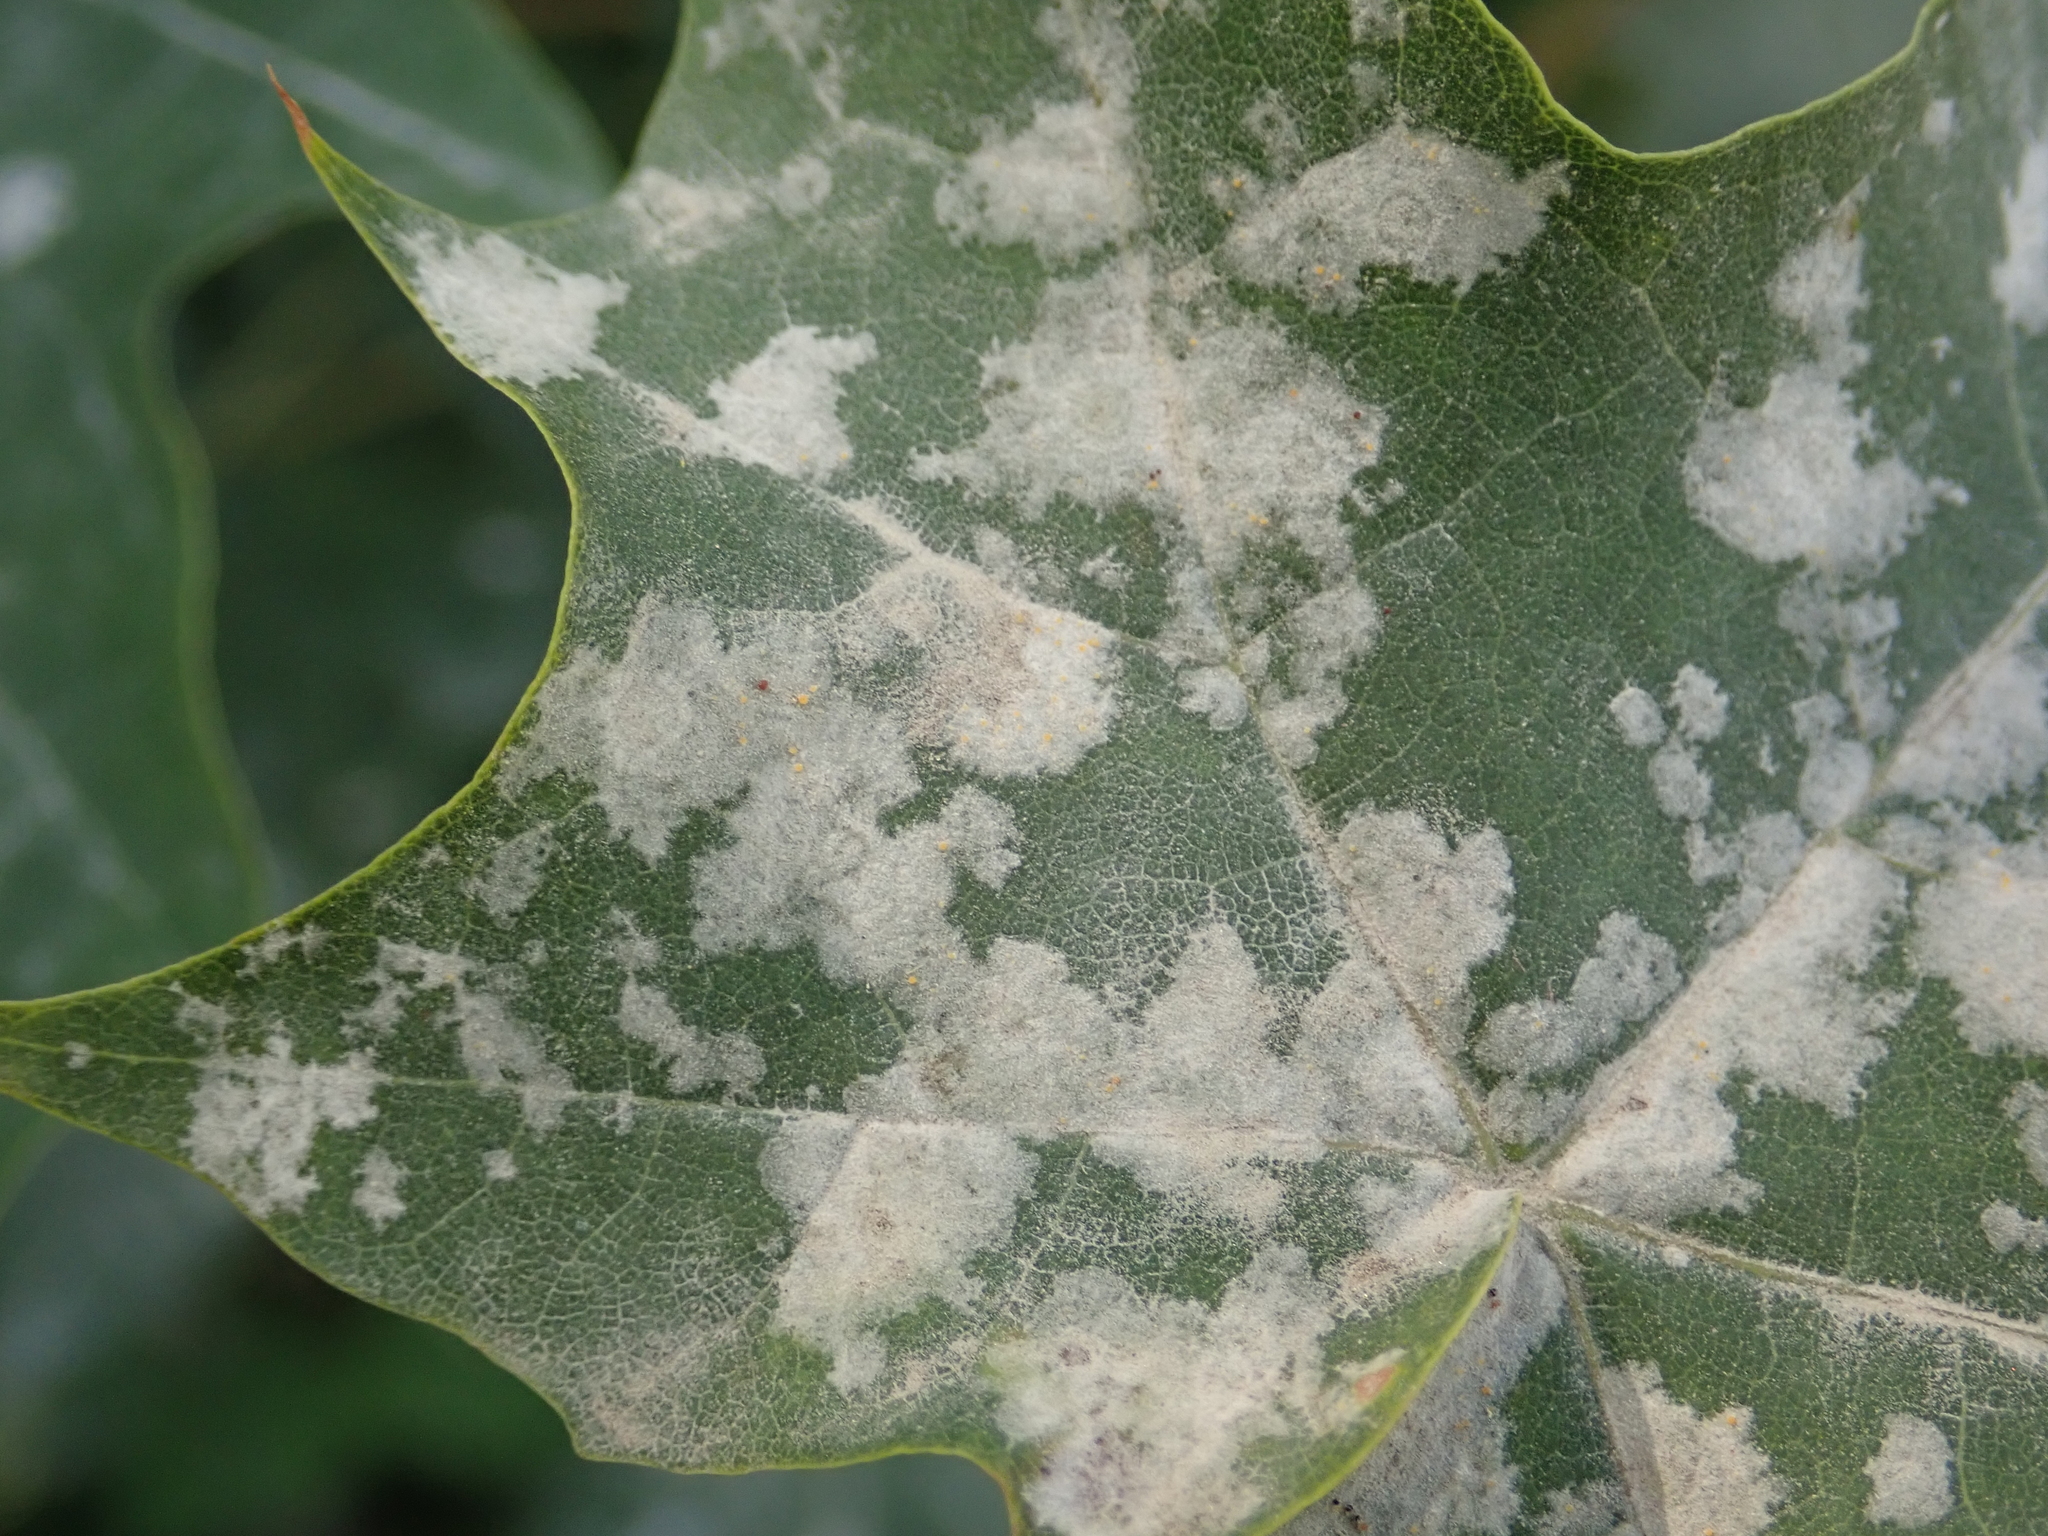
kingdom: Fungi
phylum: Ascomycota
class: Leotiomycetes
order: Helotiales
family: Erysiphaceae
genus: Sawadaea
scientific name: Sawadaea tulasnei
